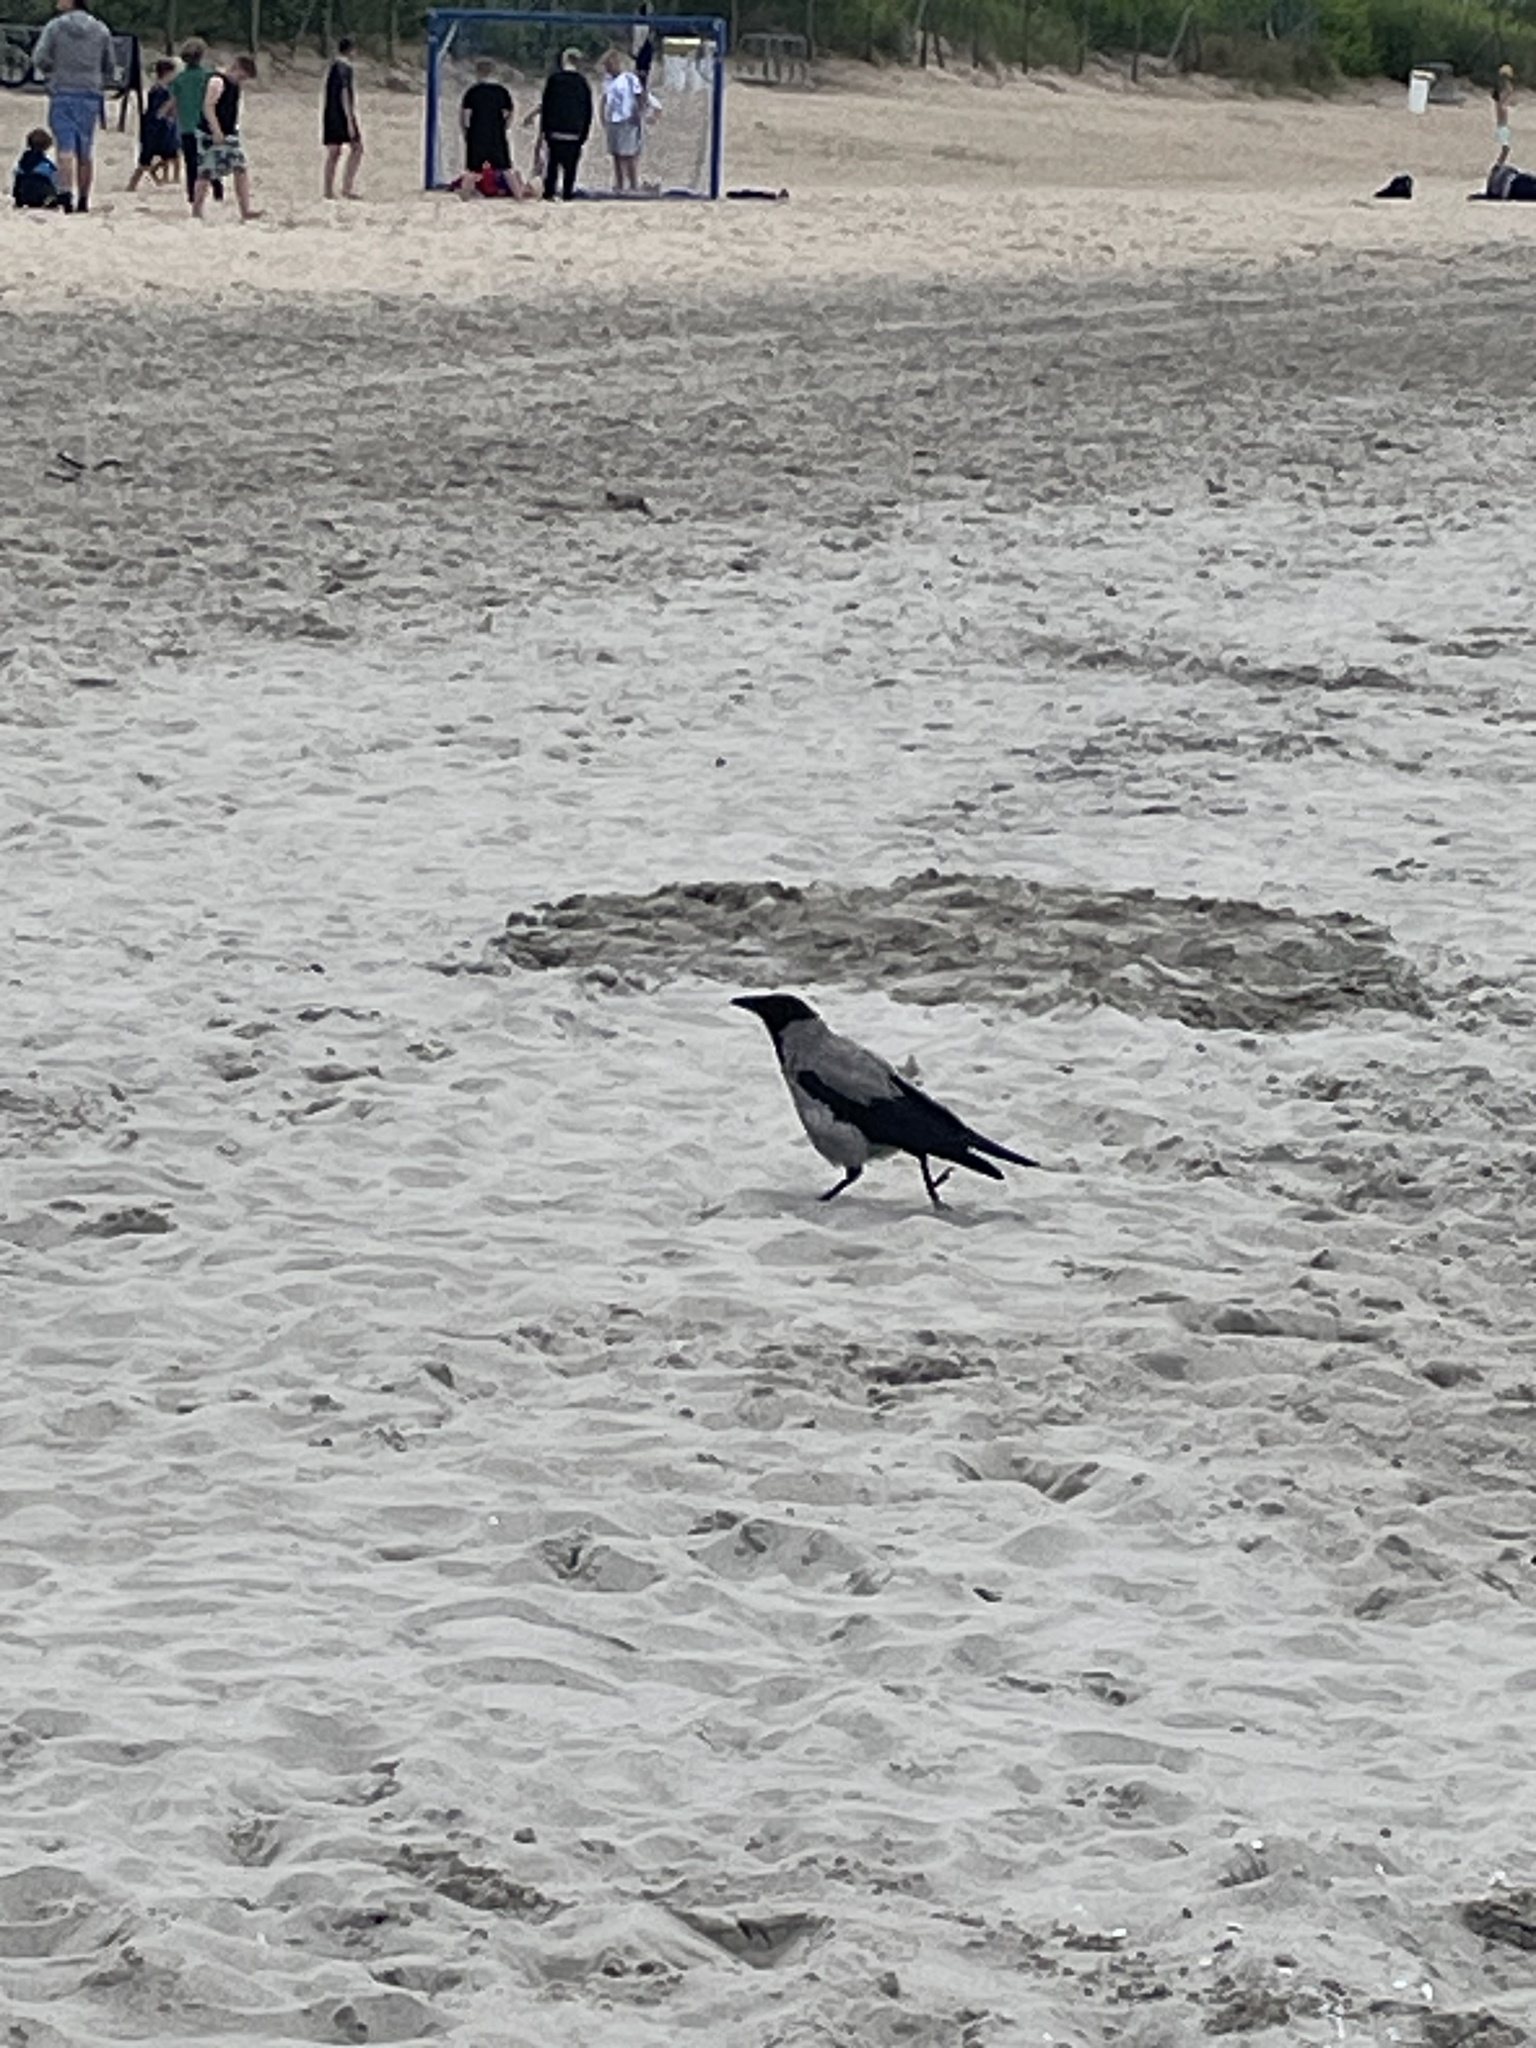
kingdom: Animalia
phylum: Chordata
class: Aves
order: Passeriformes
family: Corvidae
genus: Corvus
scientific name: Corvus cornix
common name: Hooded crow
